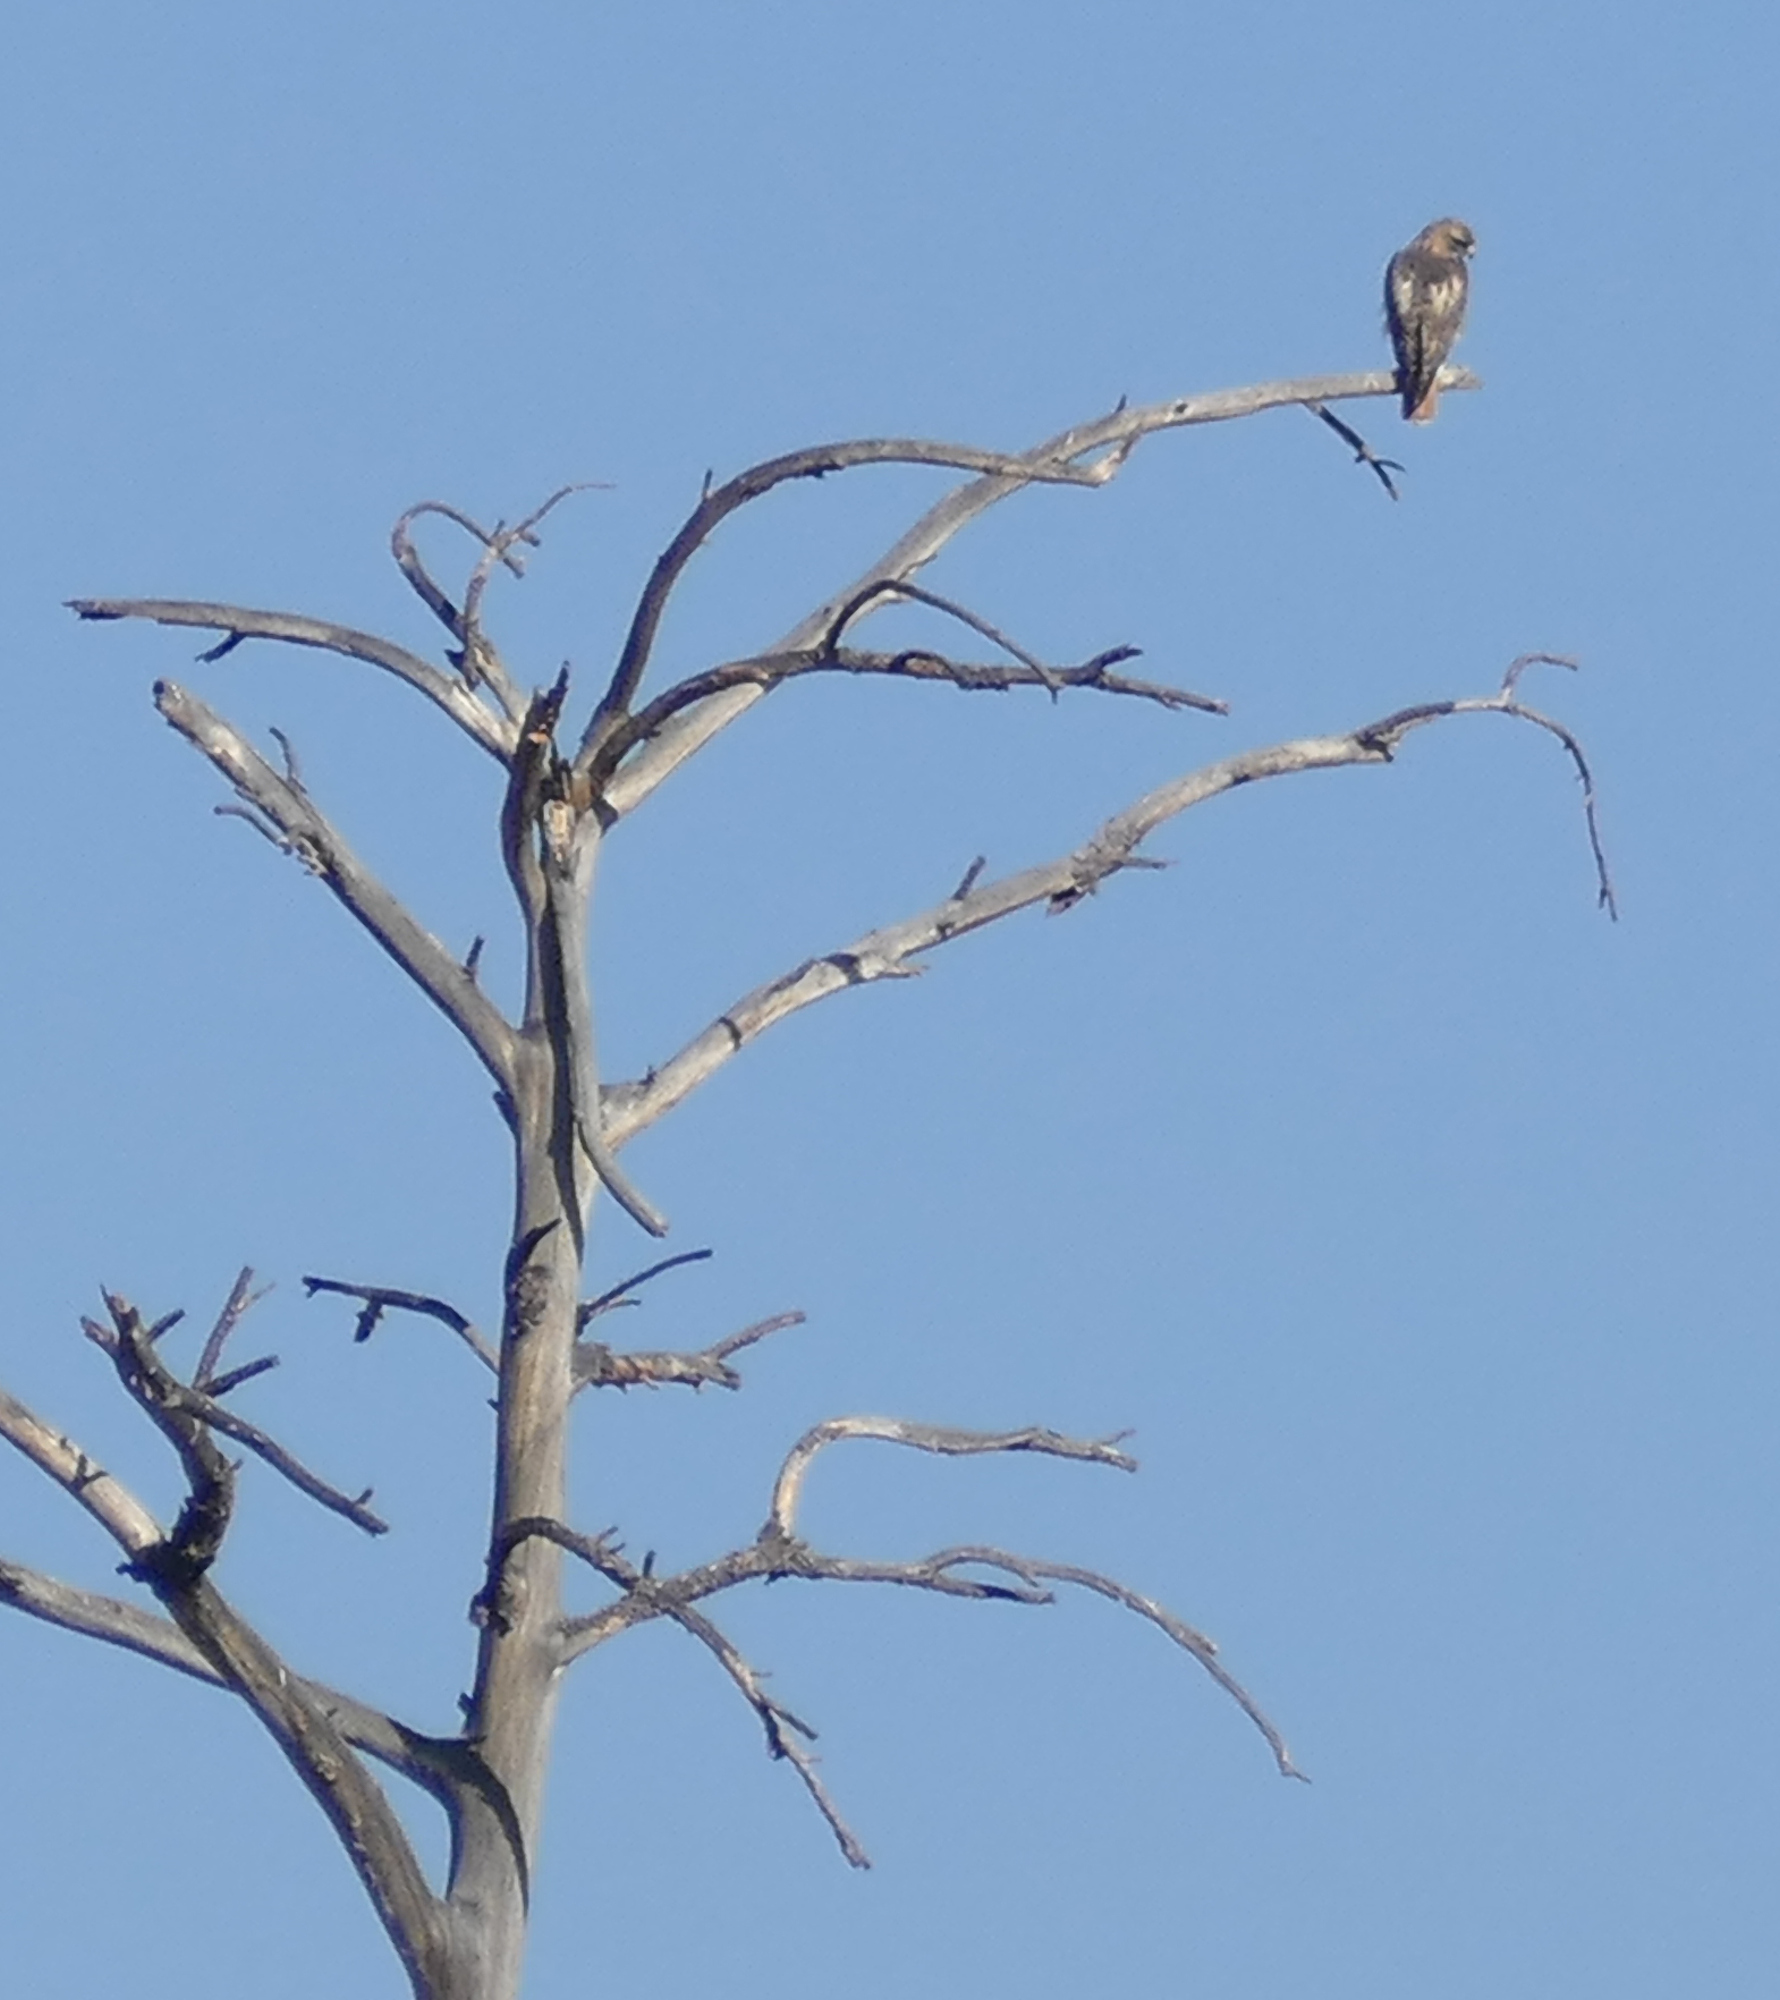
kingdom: Animalia
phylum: Chordata
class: Aves
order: Accipitriformes
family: Accipitridae
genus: Buteo
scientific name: Buteo jamaicensis
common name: Red-tailed hawk
